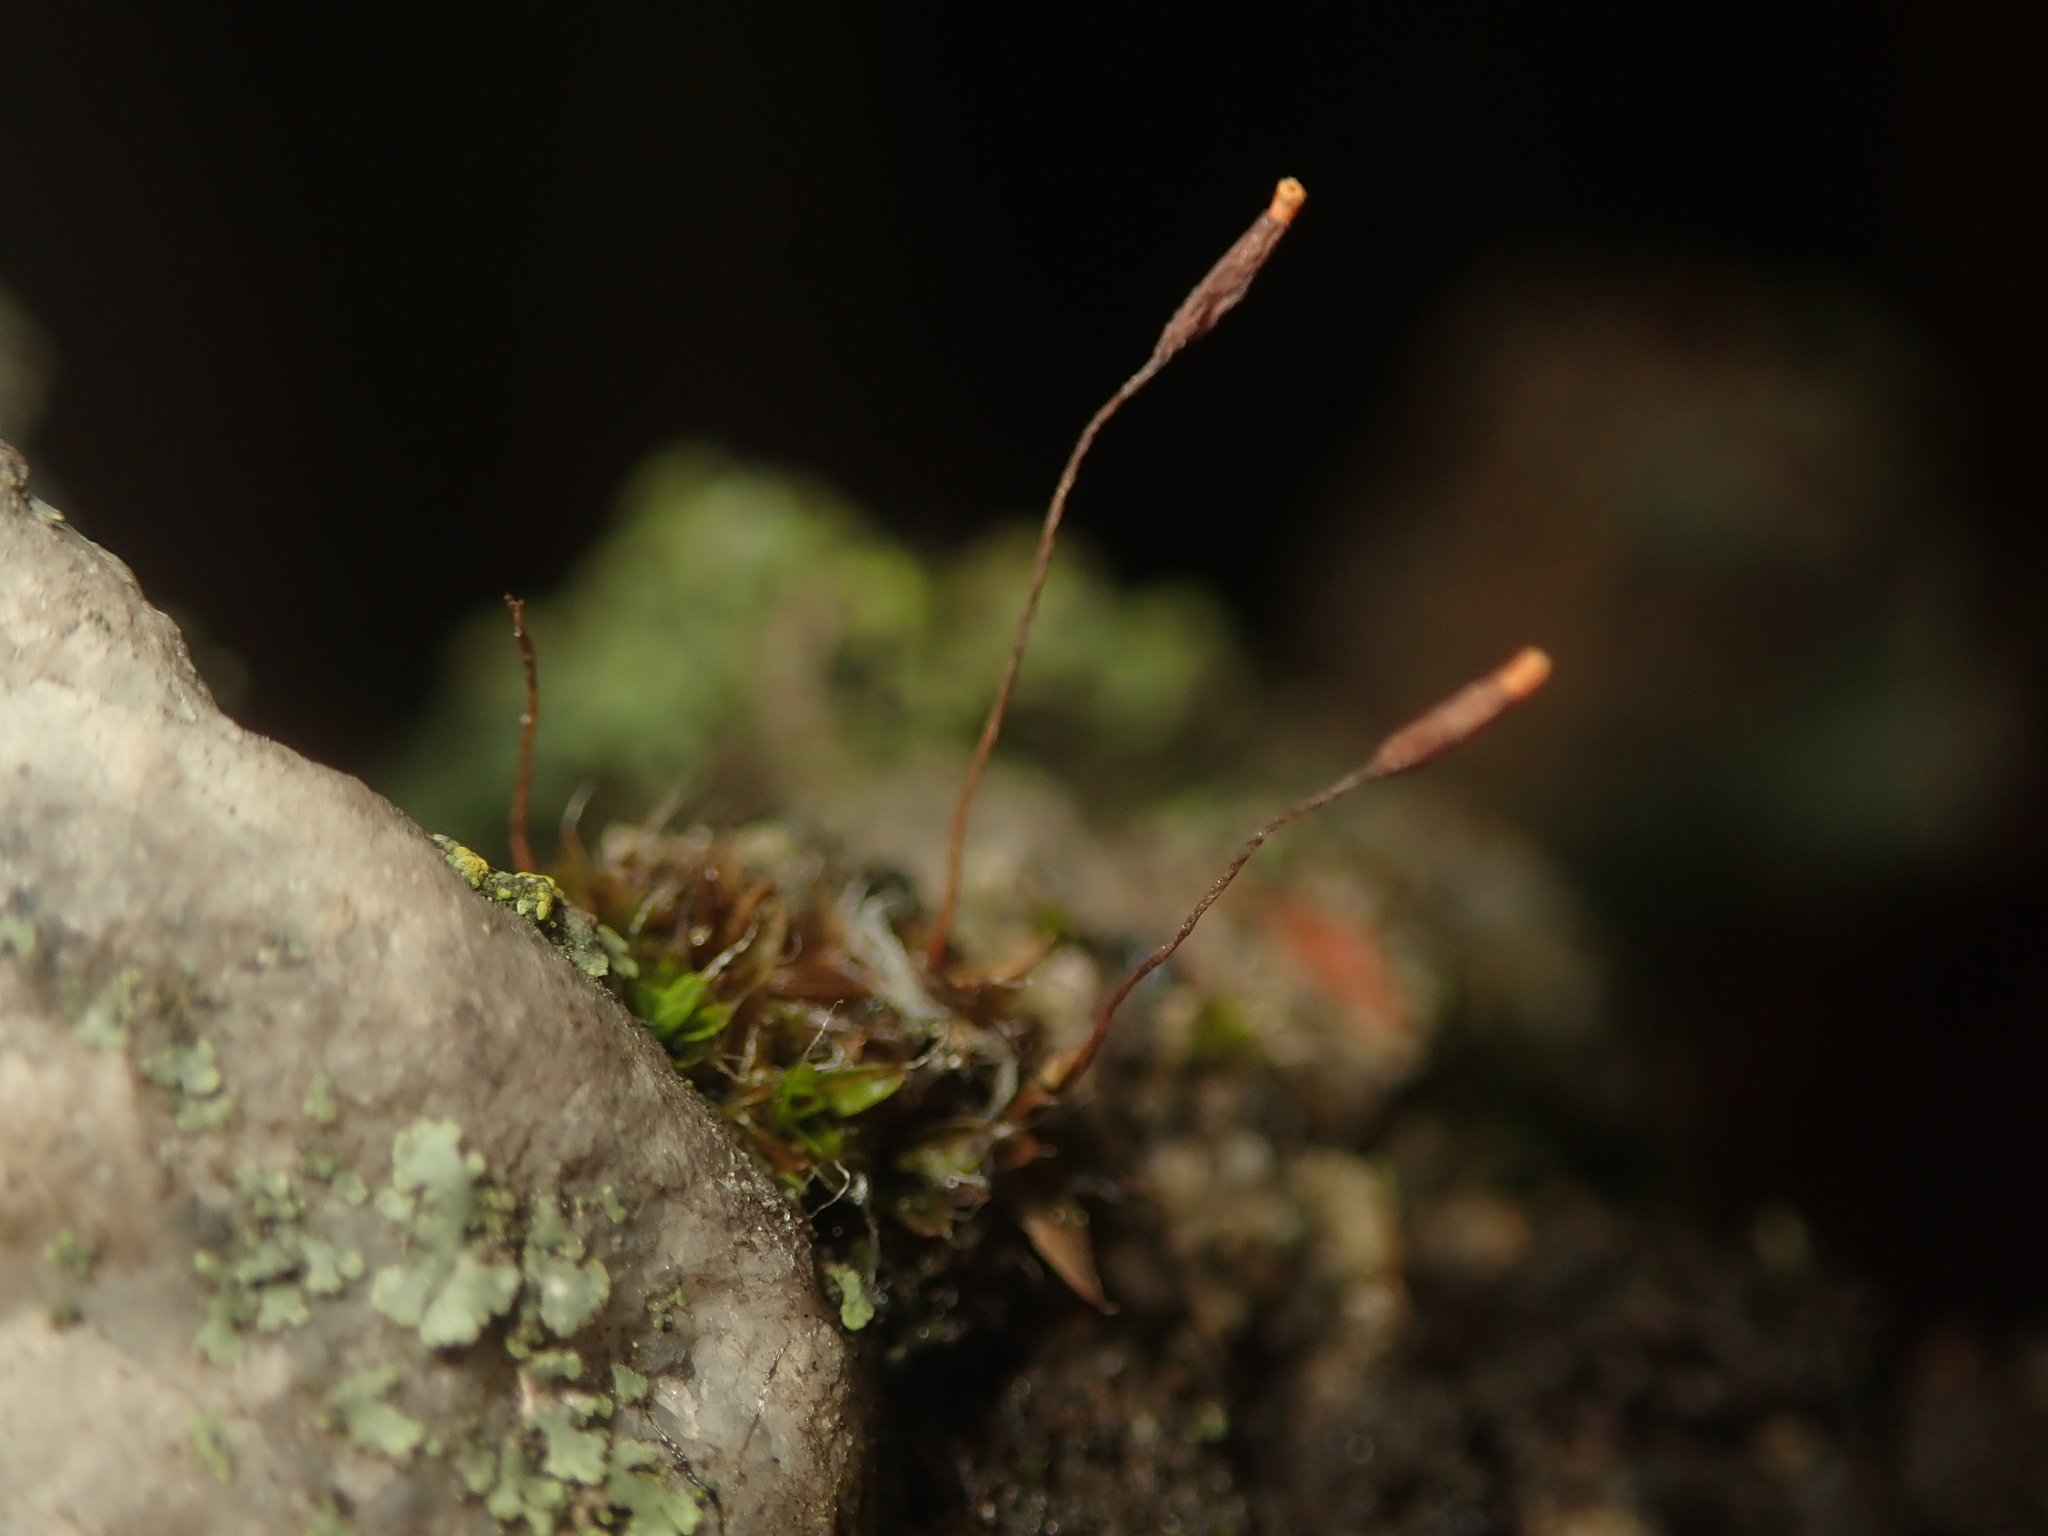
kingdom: Plantae
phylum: Bryophyta
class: Bryopsida
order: Pottiales
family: Pottiaceae
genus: Tortula
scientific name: Tortula muralis
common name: Wall screw-moss
